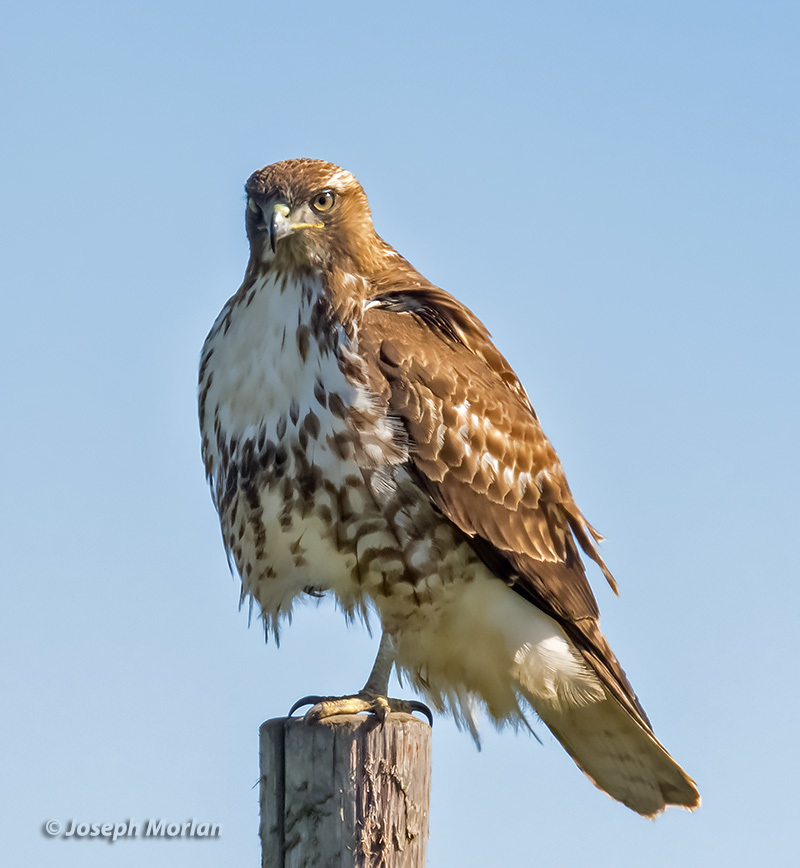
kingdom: Animalia
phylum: Chordata
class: Aves
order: Accipitriformes
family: Accipitridae
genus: Buteo
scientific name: Buteo jamaicensis
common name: Red-tailed hawk
